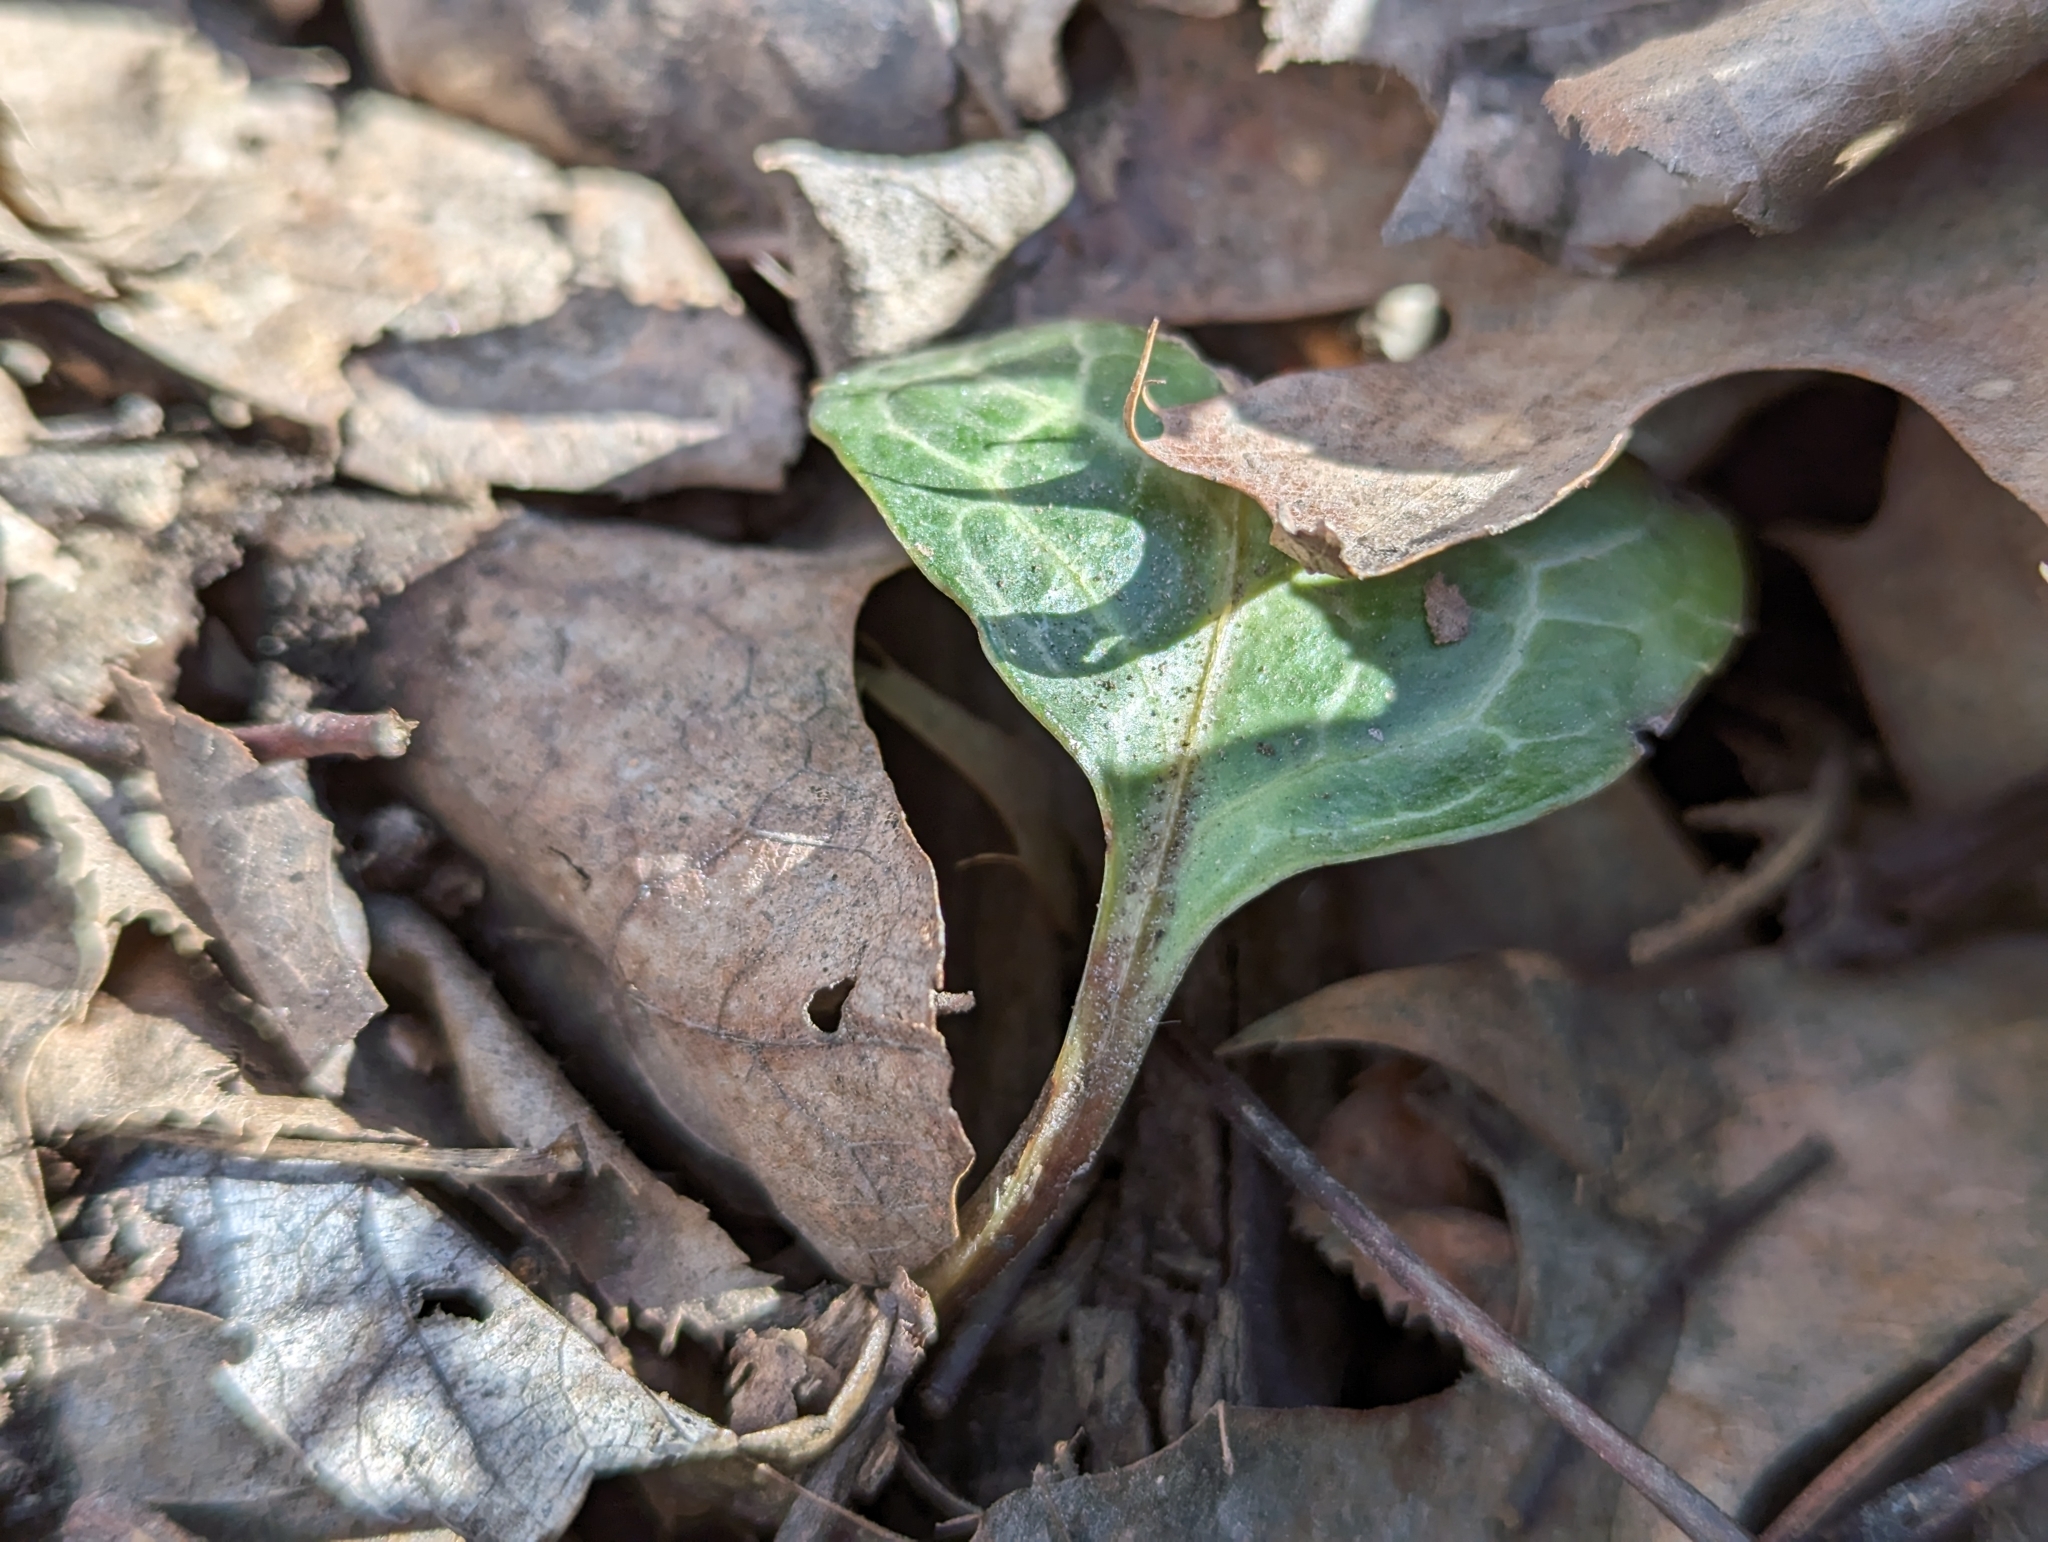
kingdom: Plantae
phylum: Tracheophyta
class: Magnoliopsida
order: Ericales
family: Ericaceae
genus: Pyrola
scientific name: Pyrola americana
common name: American wintergreen
